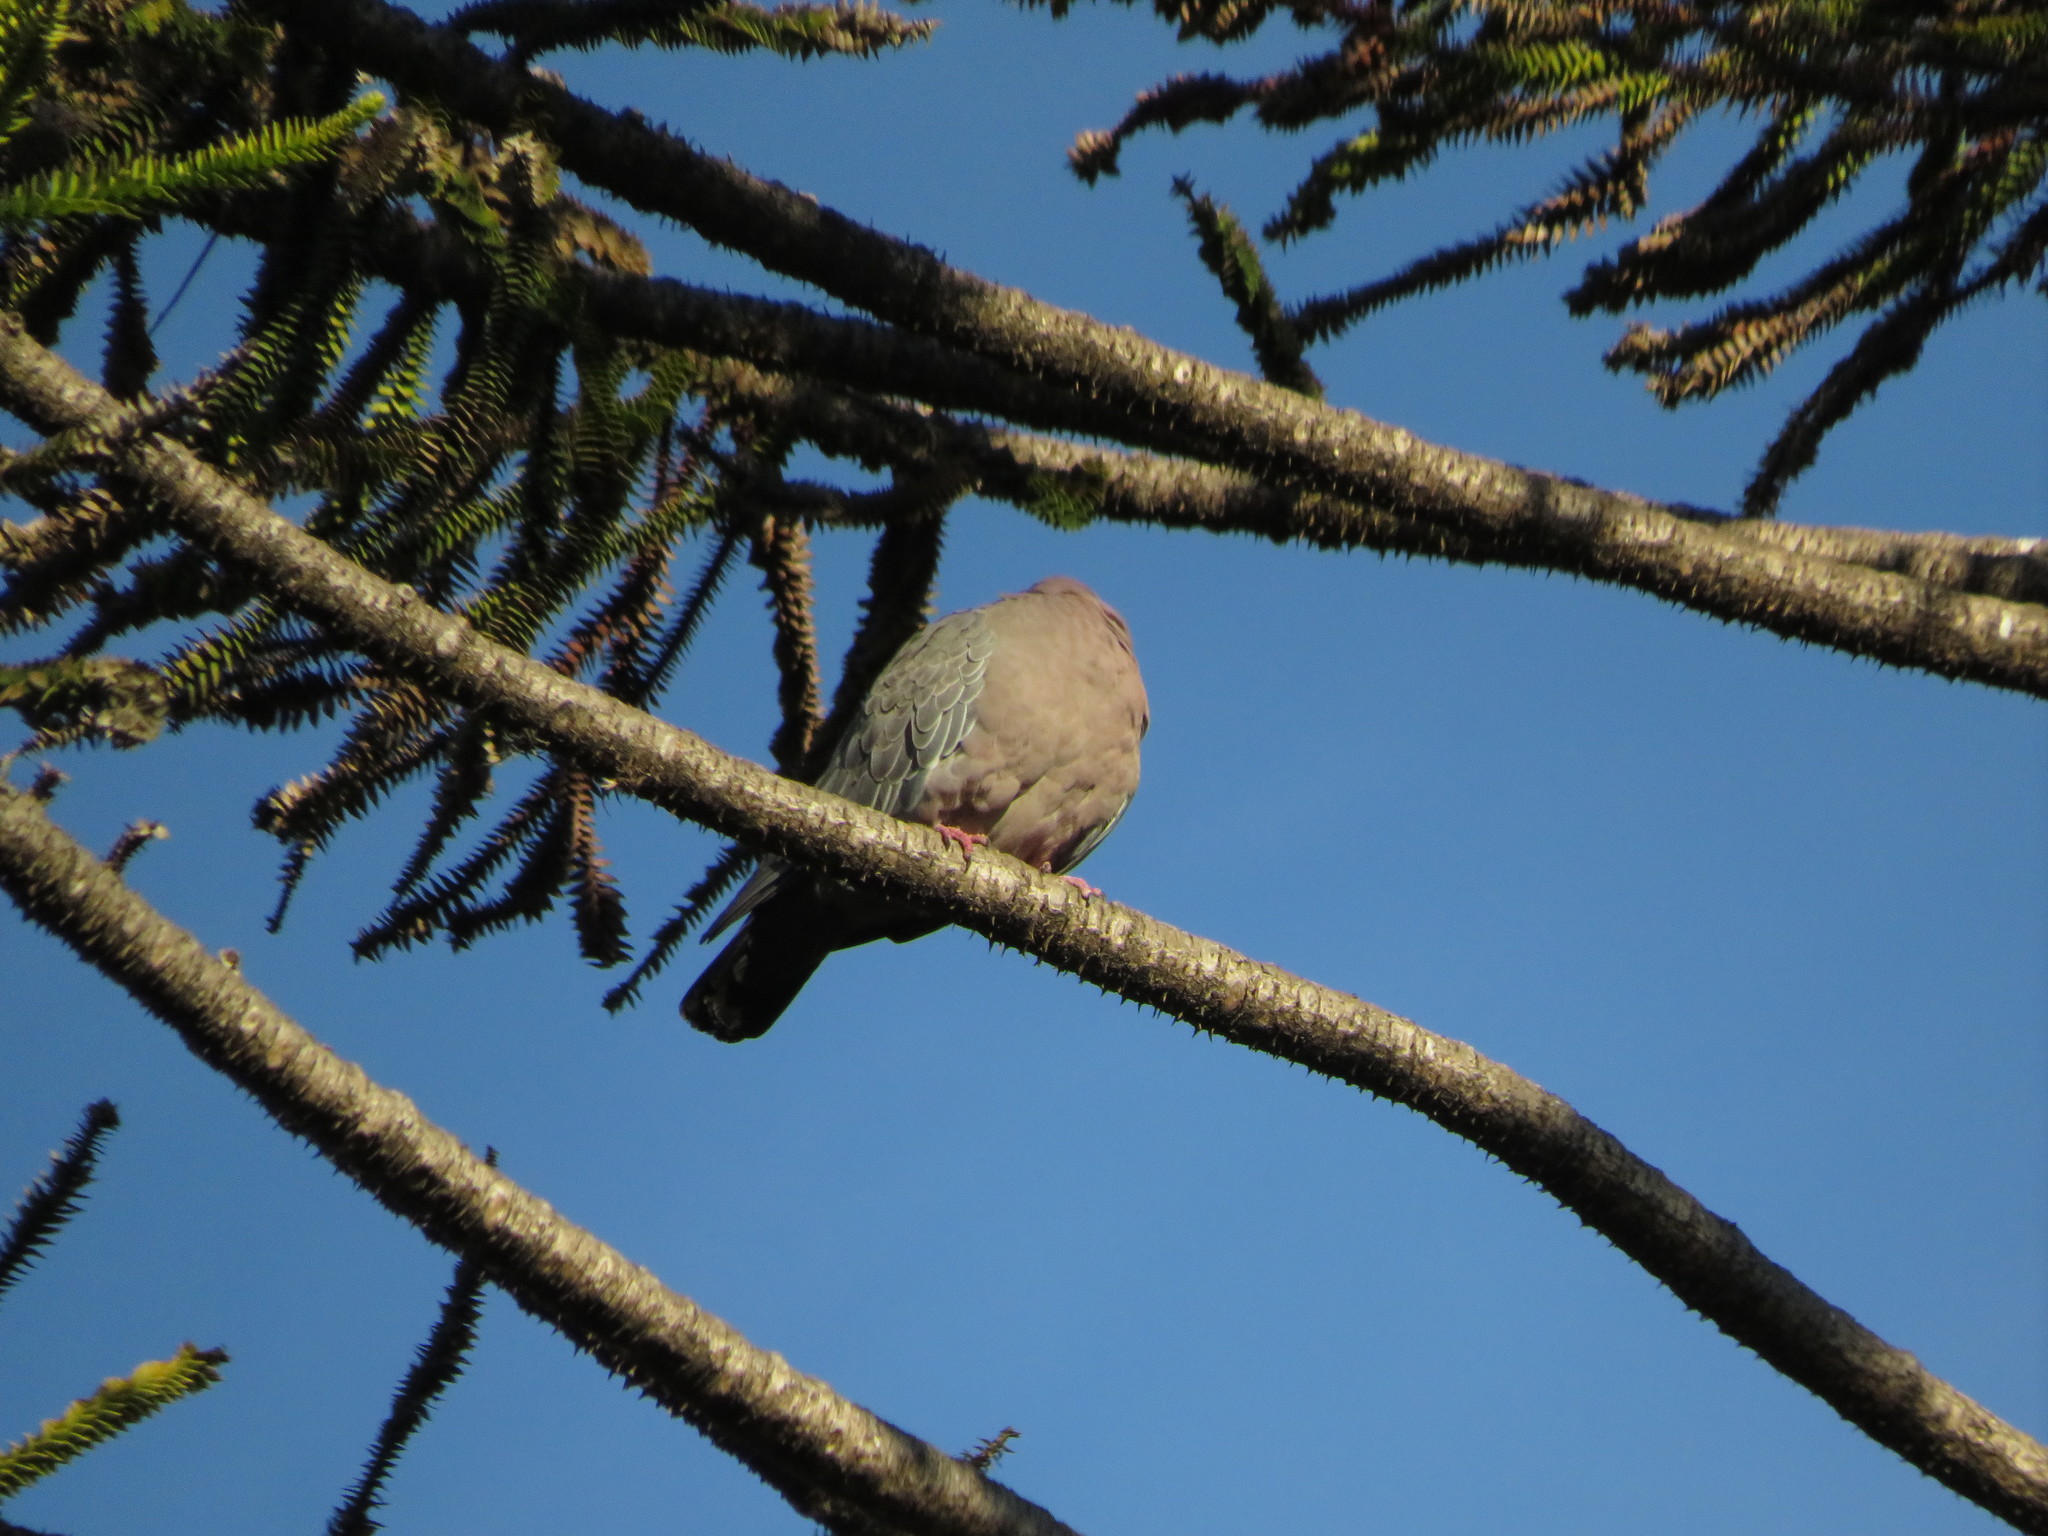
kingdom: Animalia
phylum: Chordata
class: Aves
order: Columbiformes
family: Columbidae
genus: Patagioenas
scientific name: Patagioenas picazuro
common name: Picazuro pigeon
